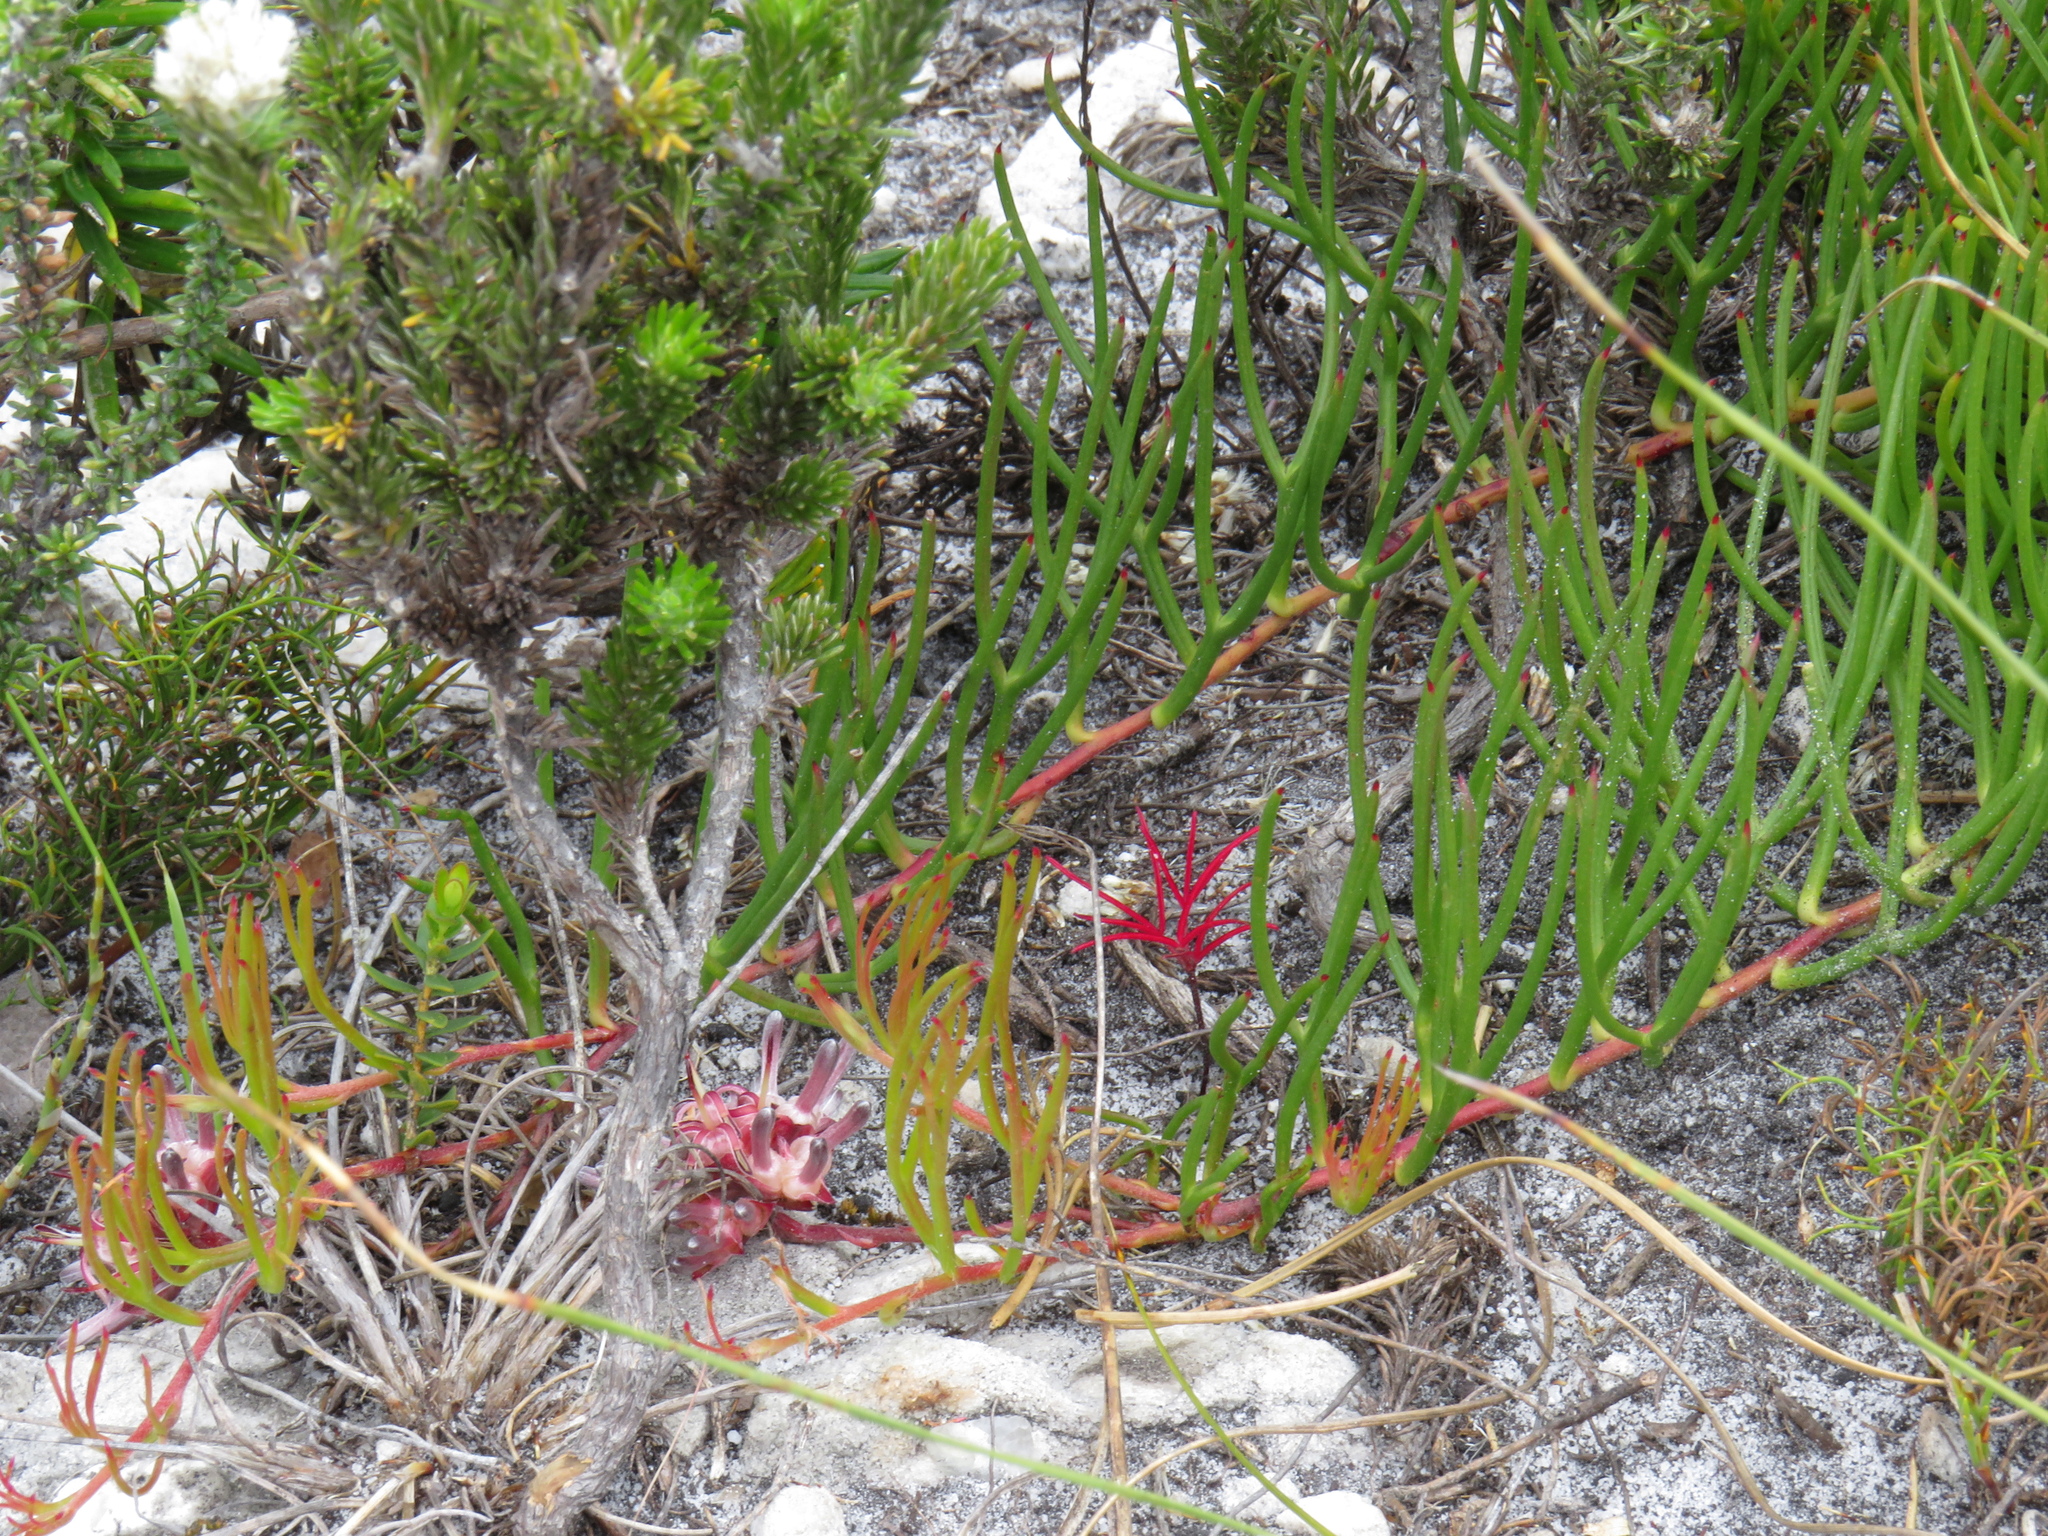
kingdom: Plantae
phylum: Tracheophyta
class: Magnoliopsida
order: Proteales
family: Proteaceae
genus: Serruria
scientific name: Serruria decumbens
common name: Peninsula spiderhead
